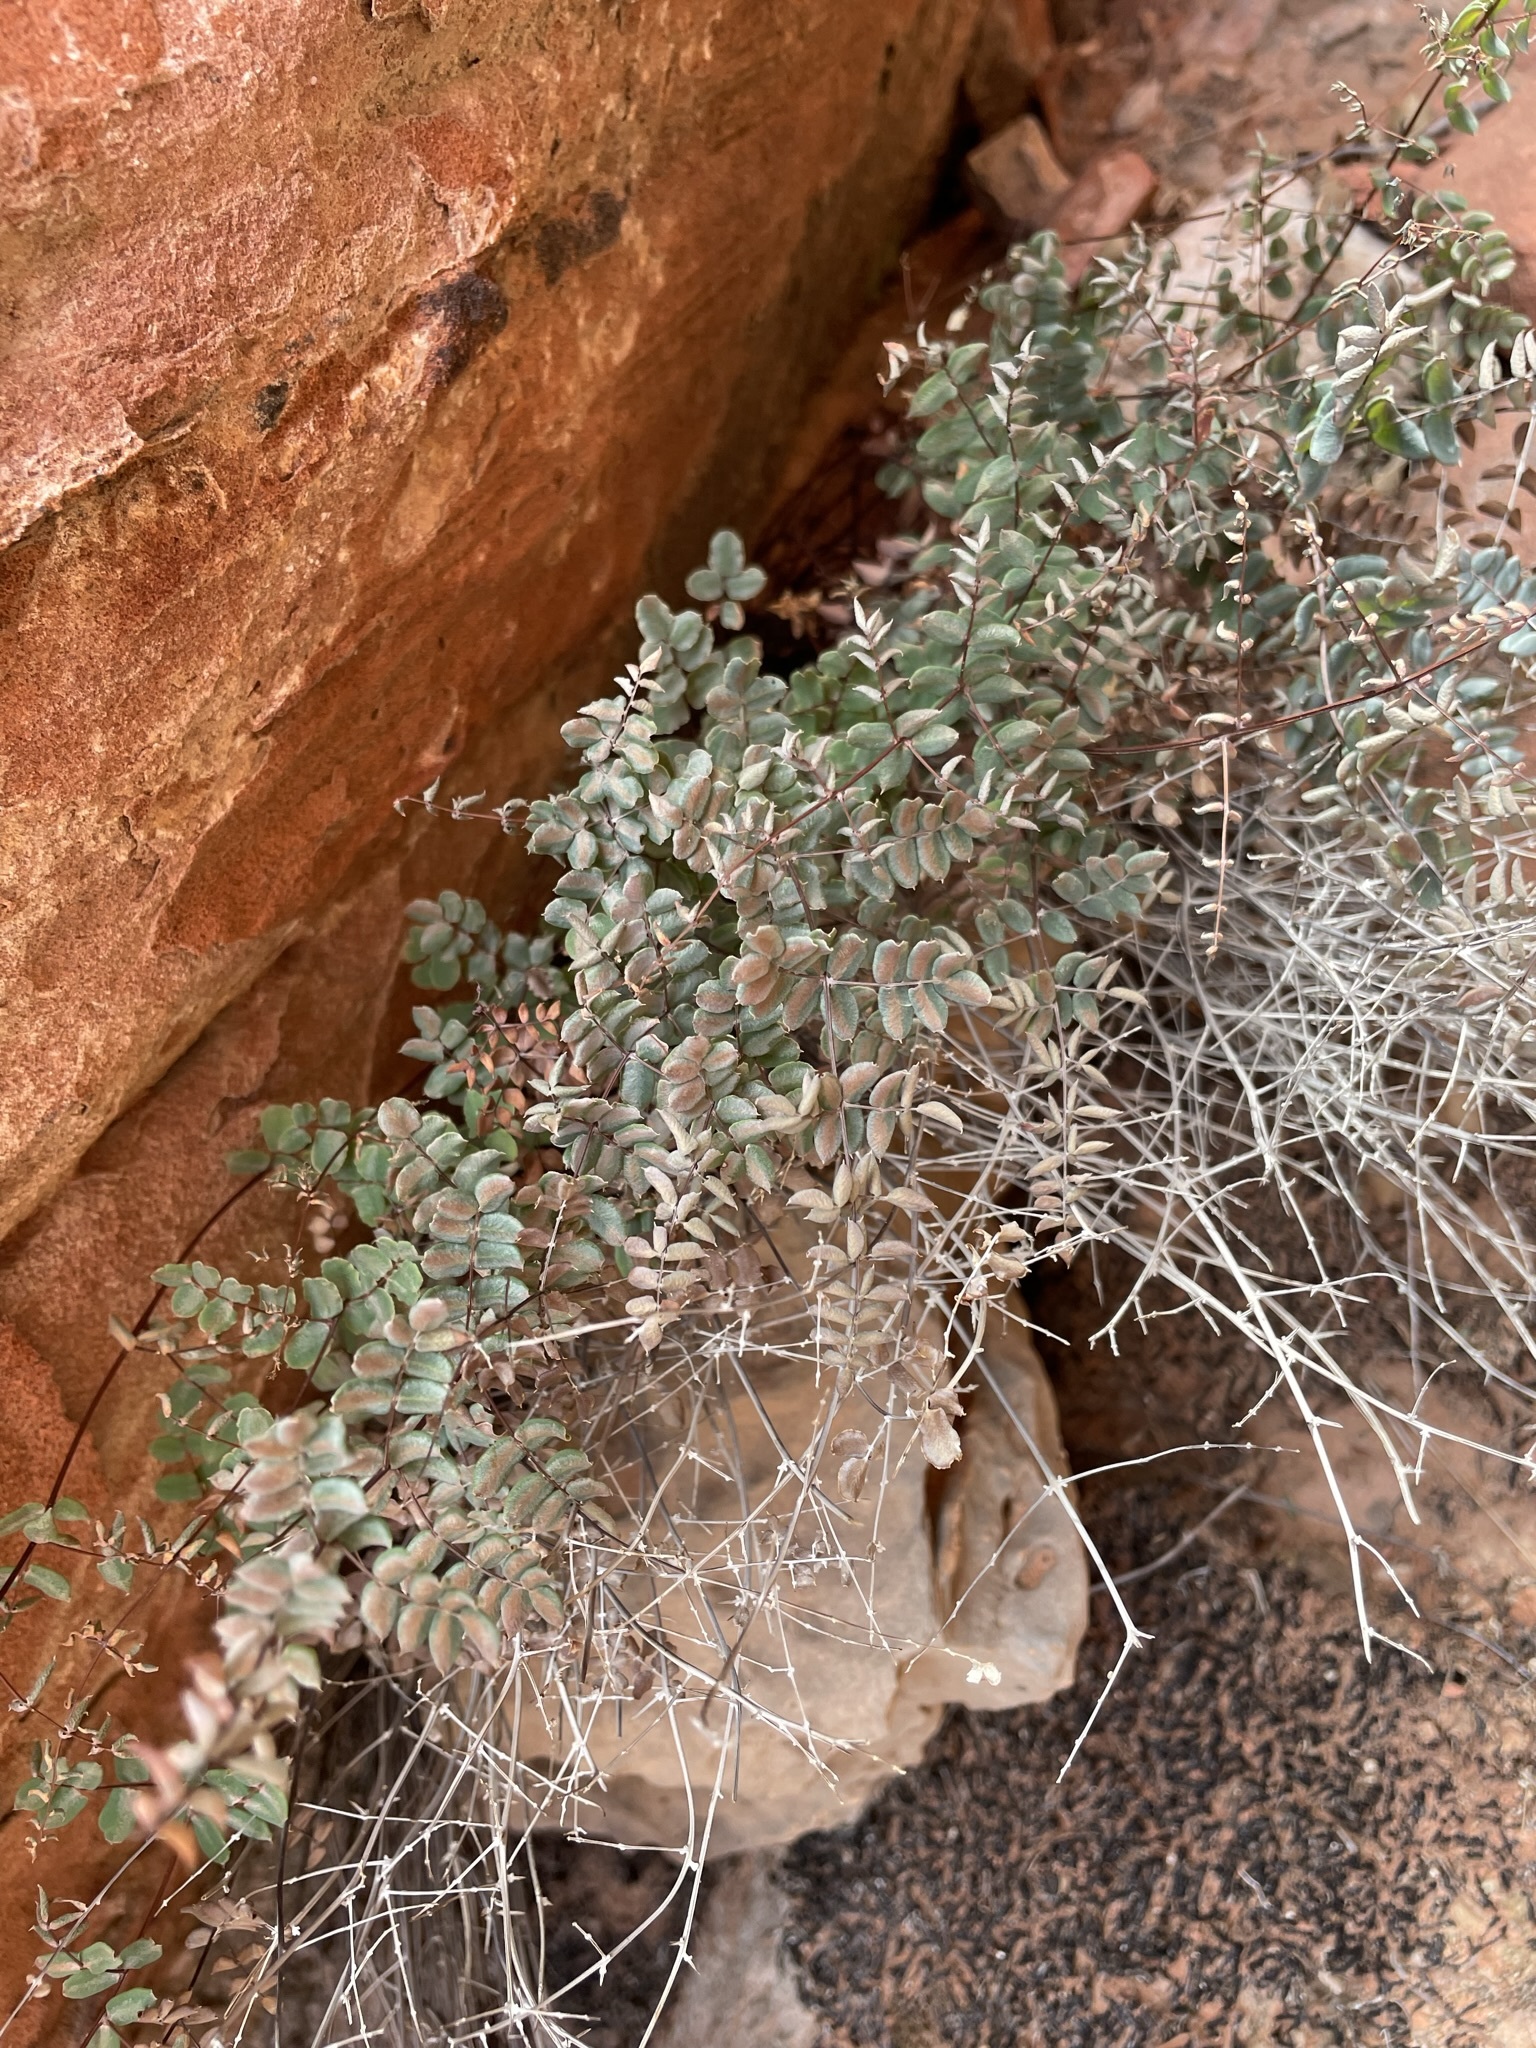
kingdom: Plantae
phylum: Tracheophyta
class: Polypodiopsida
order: Polypodiales
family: Pteridaceae
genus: Pellaea
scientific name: Pellaea truncata
